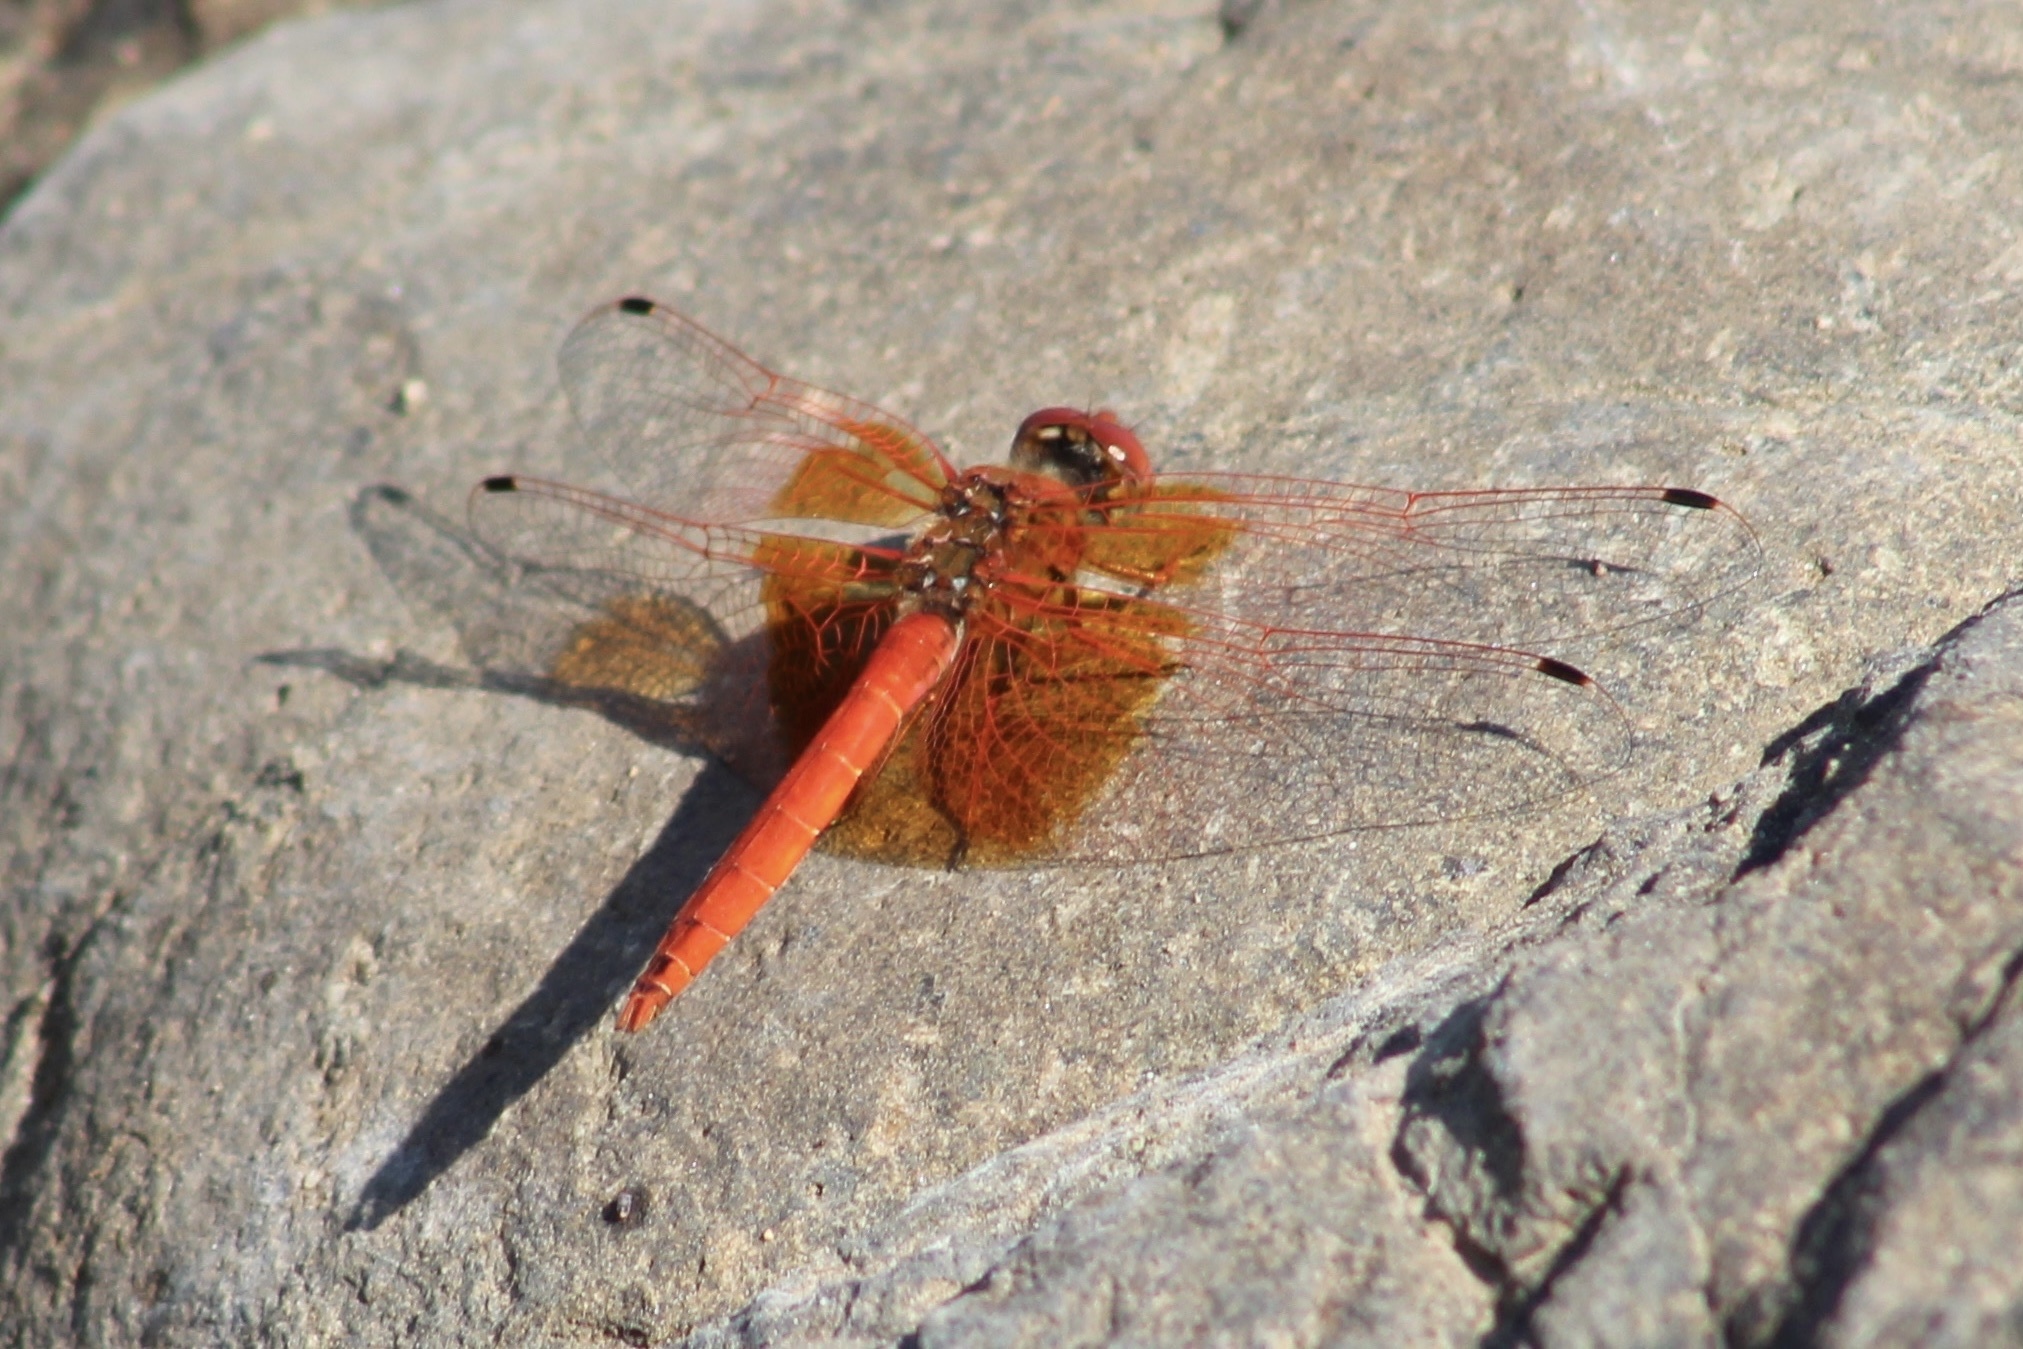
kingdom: Animalia
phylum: Arthropoda
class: Insecta
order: Odonata
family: Libellulidae
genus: Trithemis
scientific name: Trithemis kirbyi
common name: Kirby's dropwing
